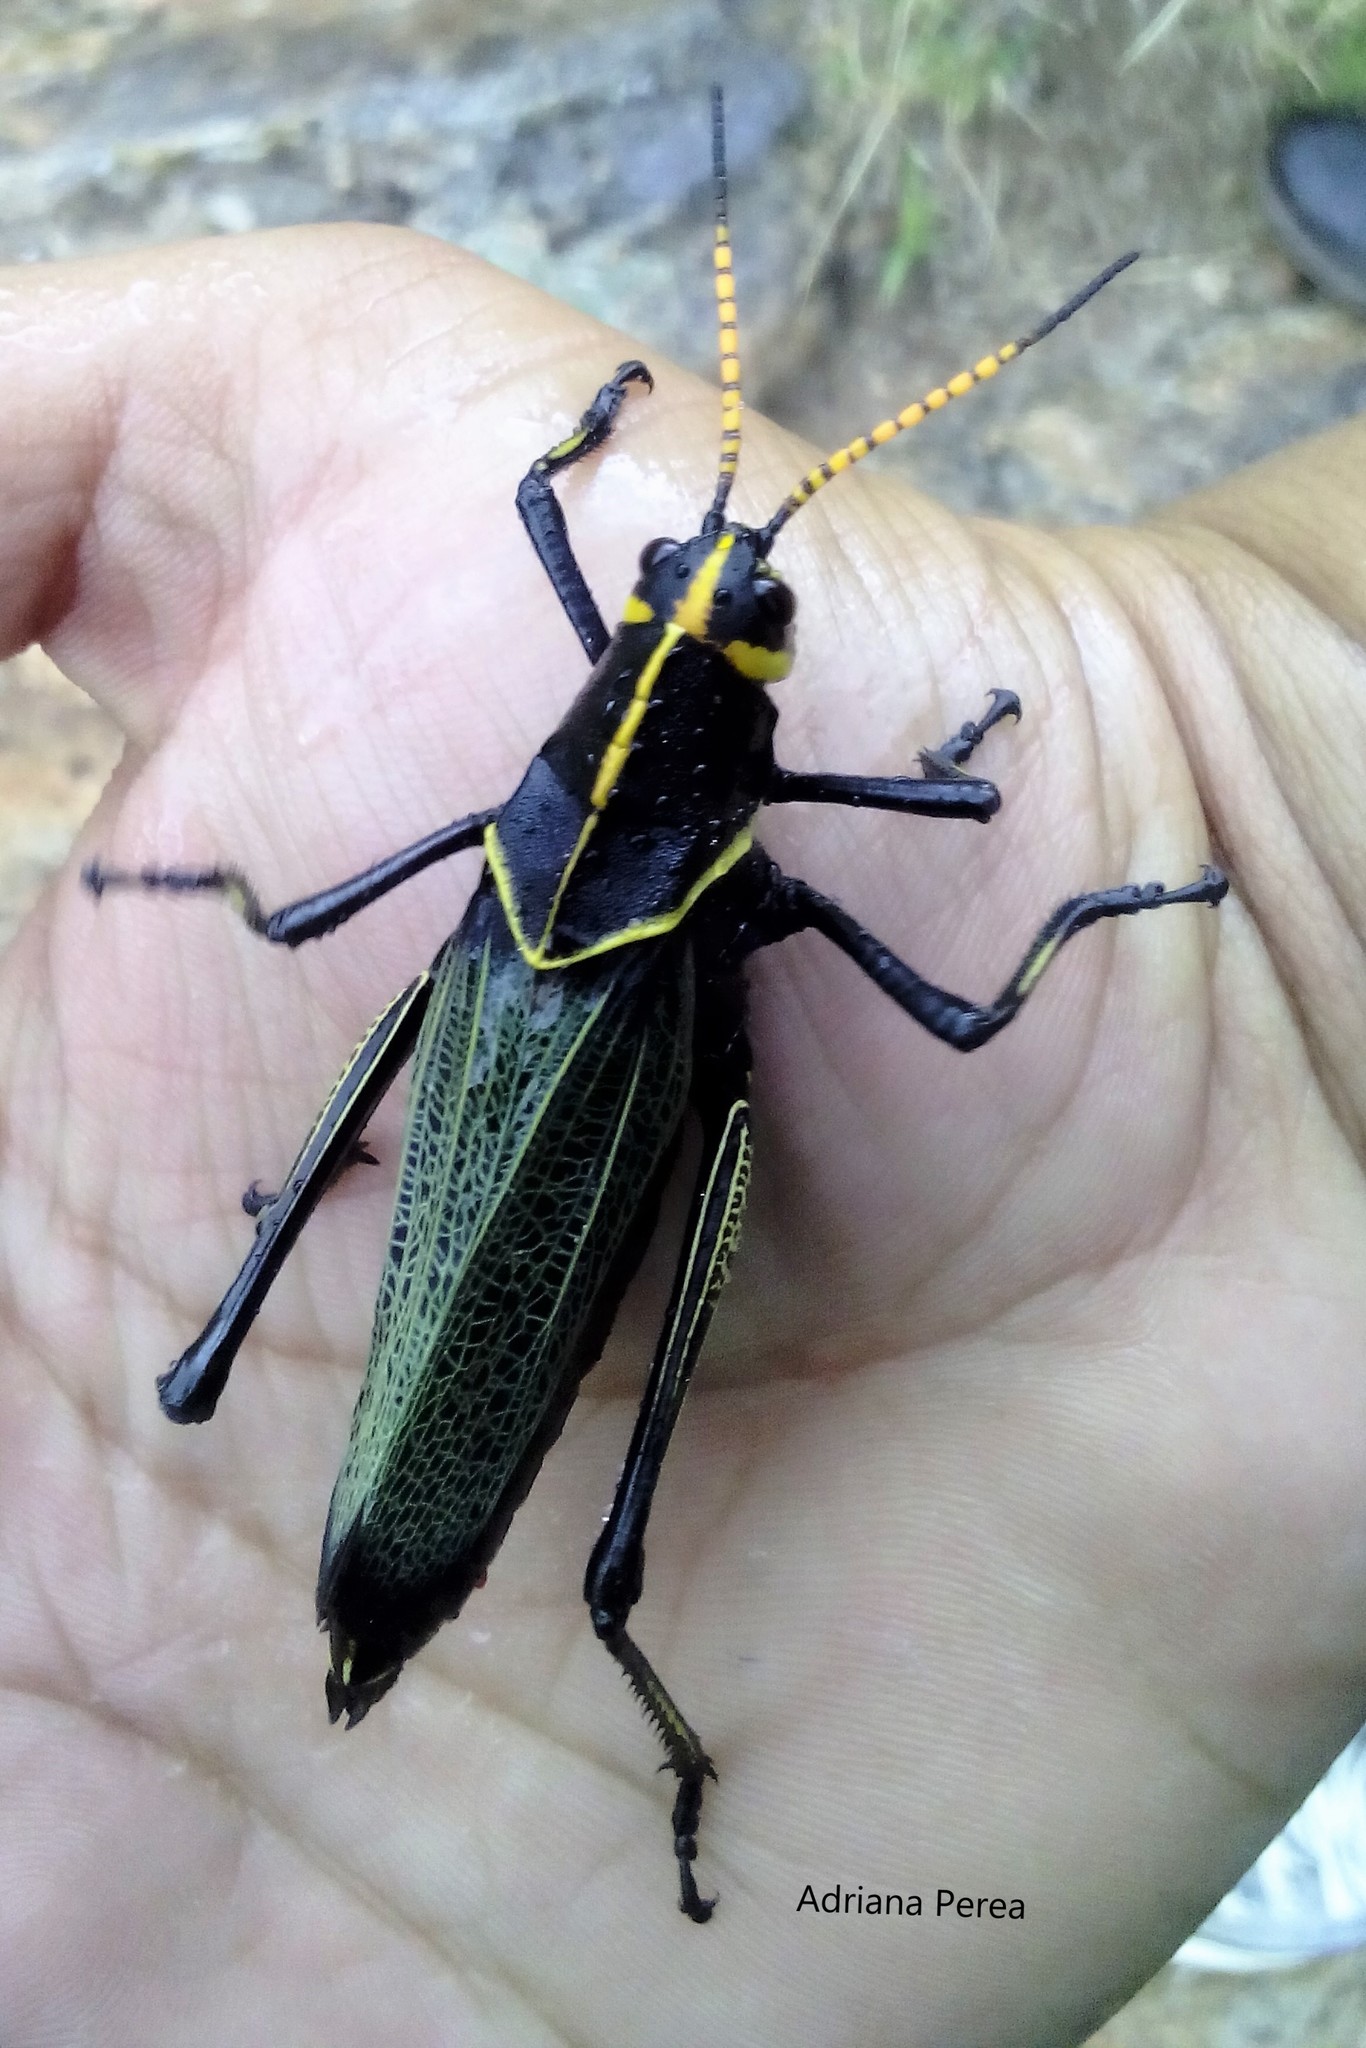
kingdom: Animalia
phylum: Arthropoda
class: Insecta
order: Orthoptera
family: Romaleidae
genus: Romalea
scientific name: Romalea
